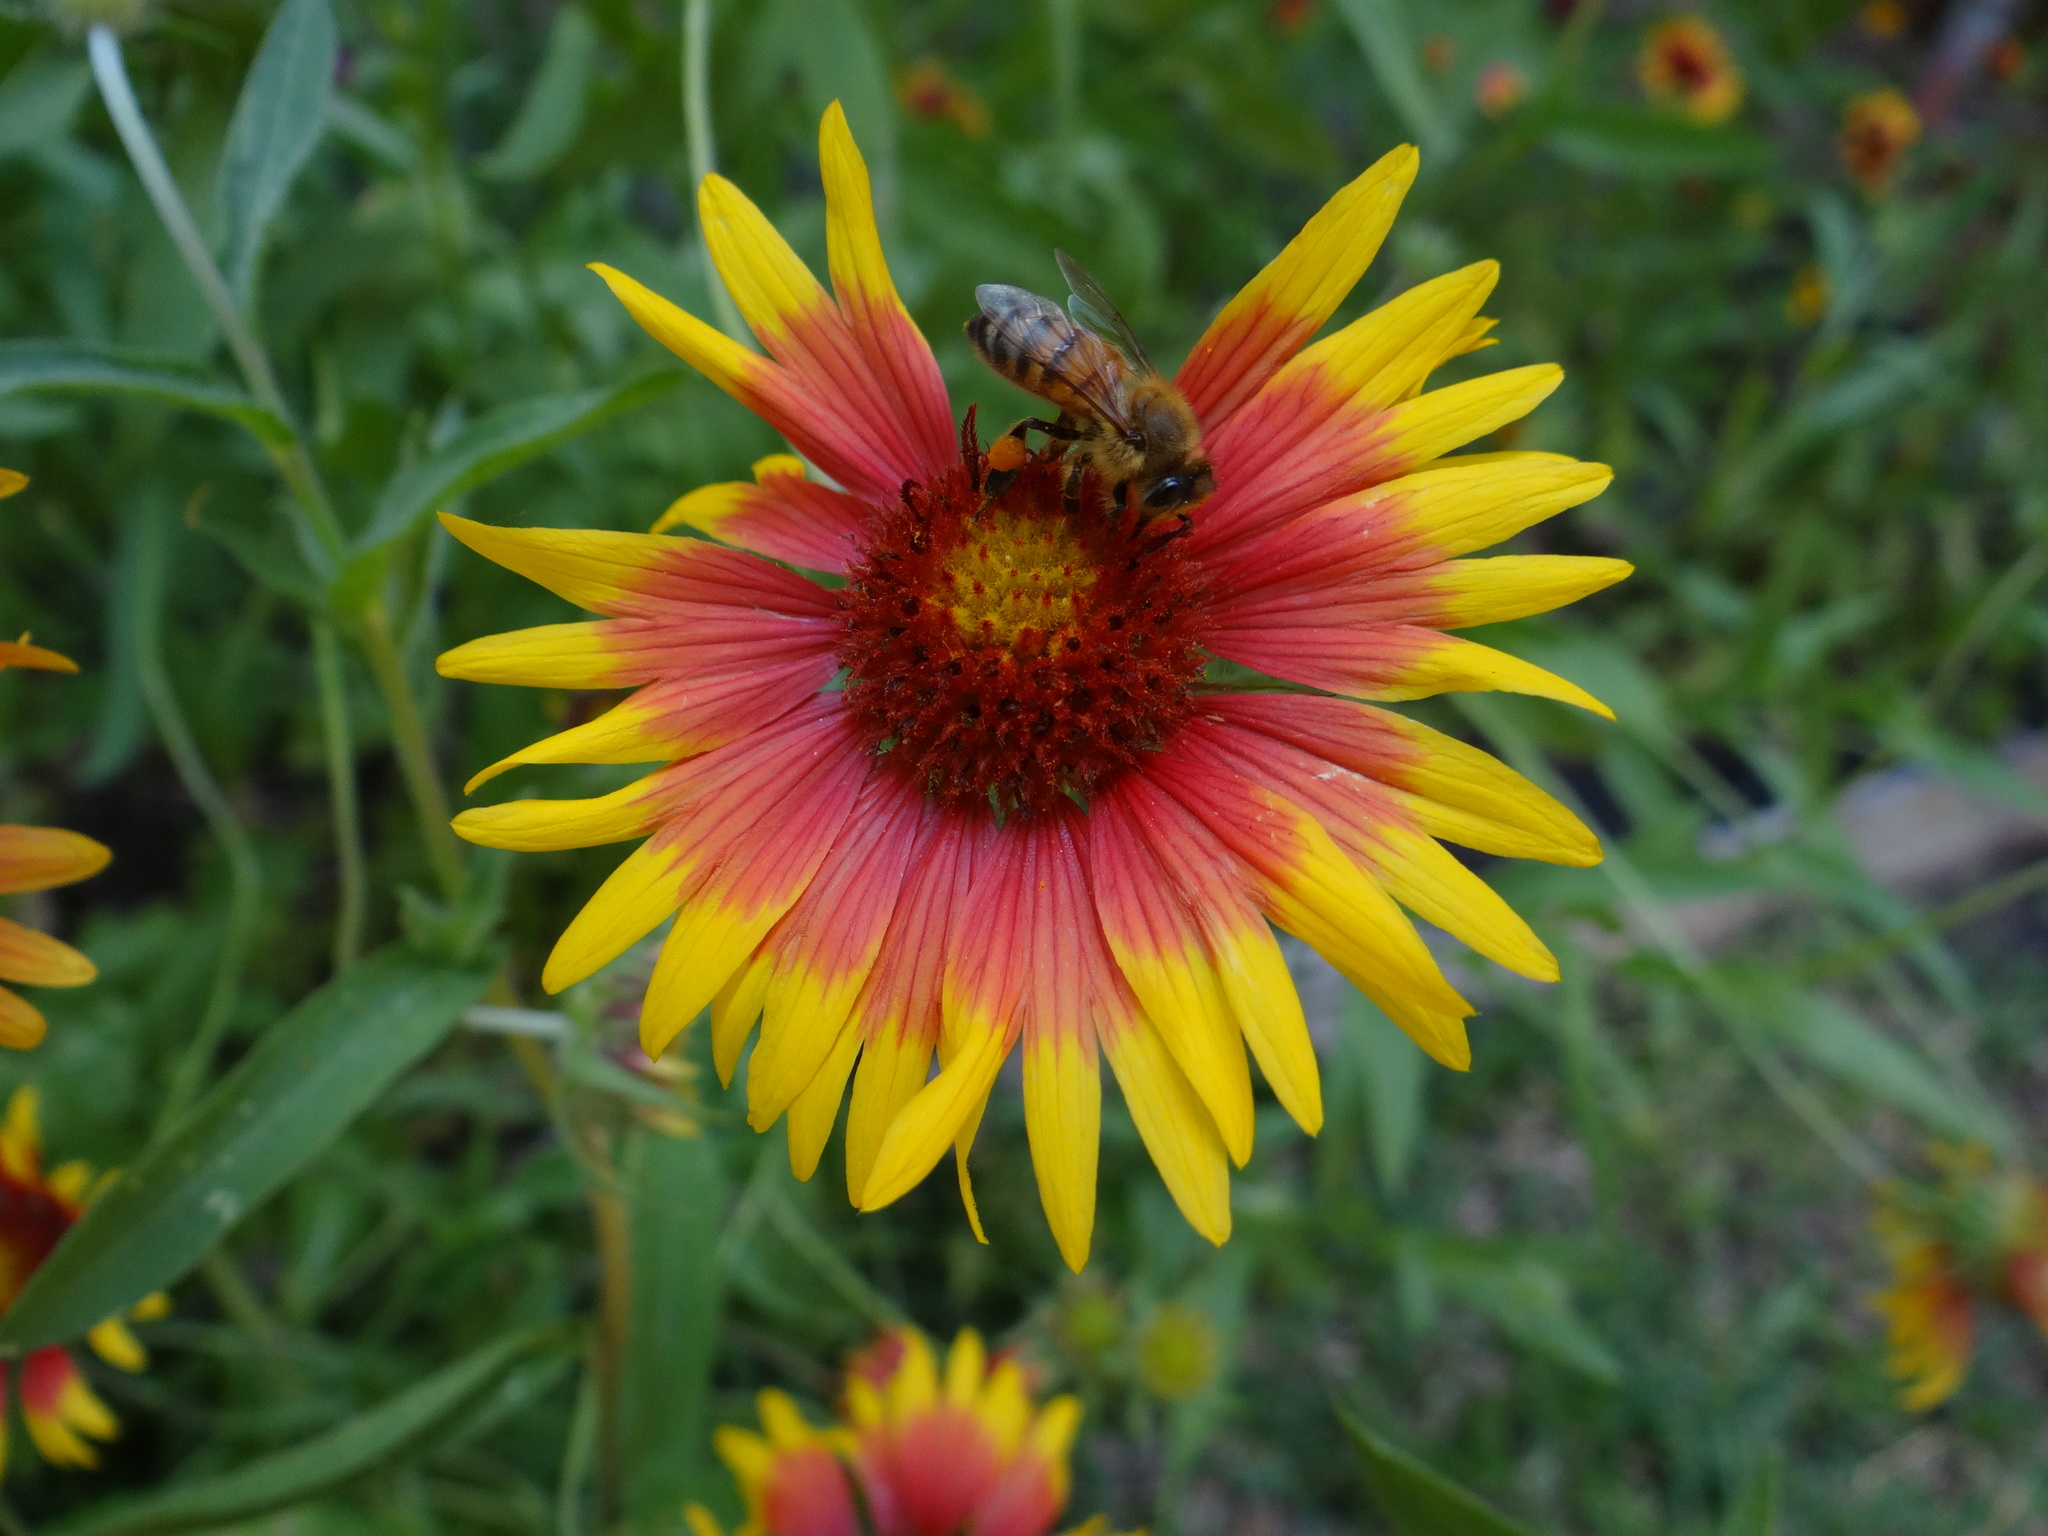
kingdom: Plantae
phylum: Tracheophyta
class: Magnoliopsida
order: Asterales
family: Asteraceae
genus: Gaillardia
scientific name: Gaillardia pulchella
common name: Firewheel
